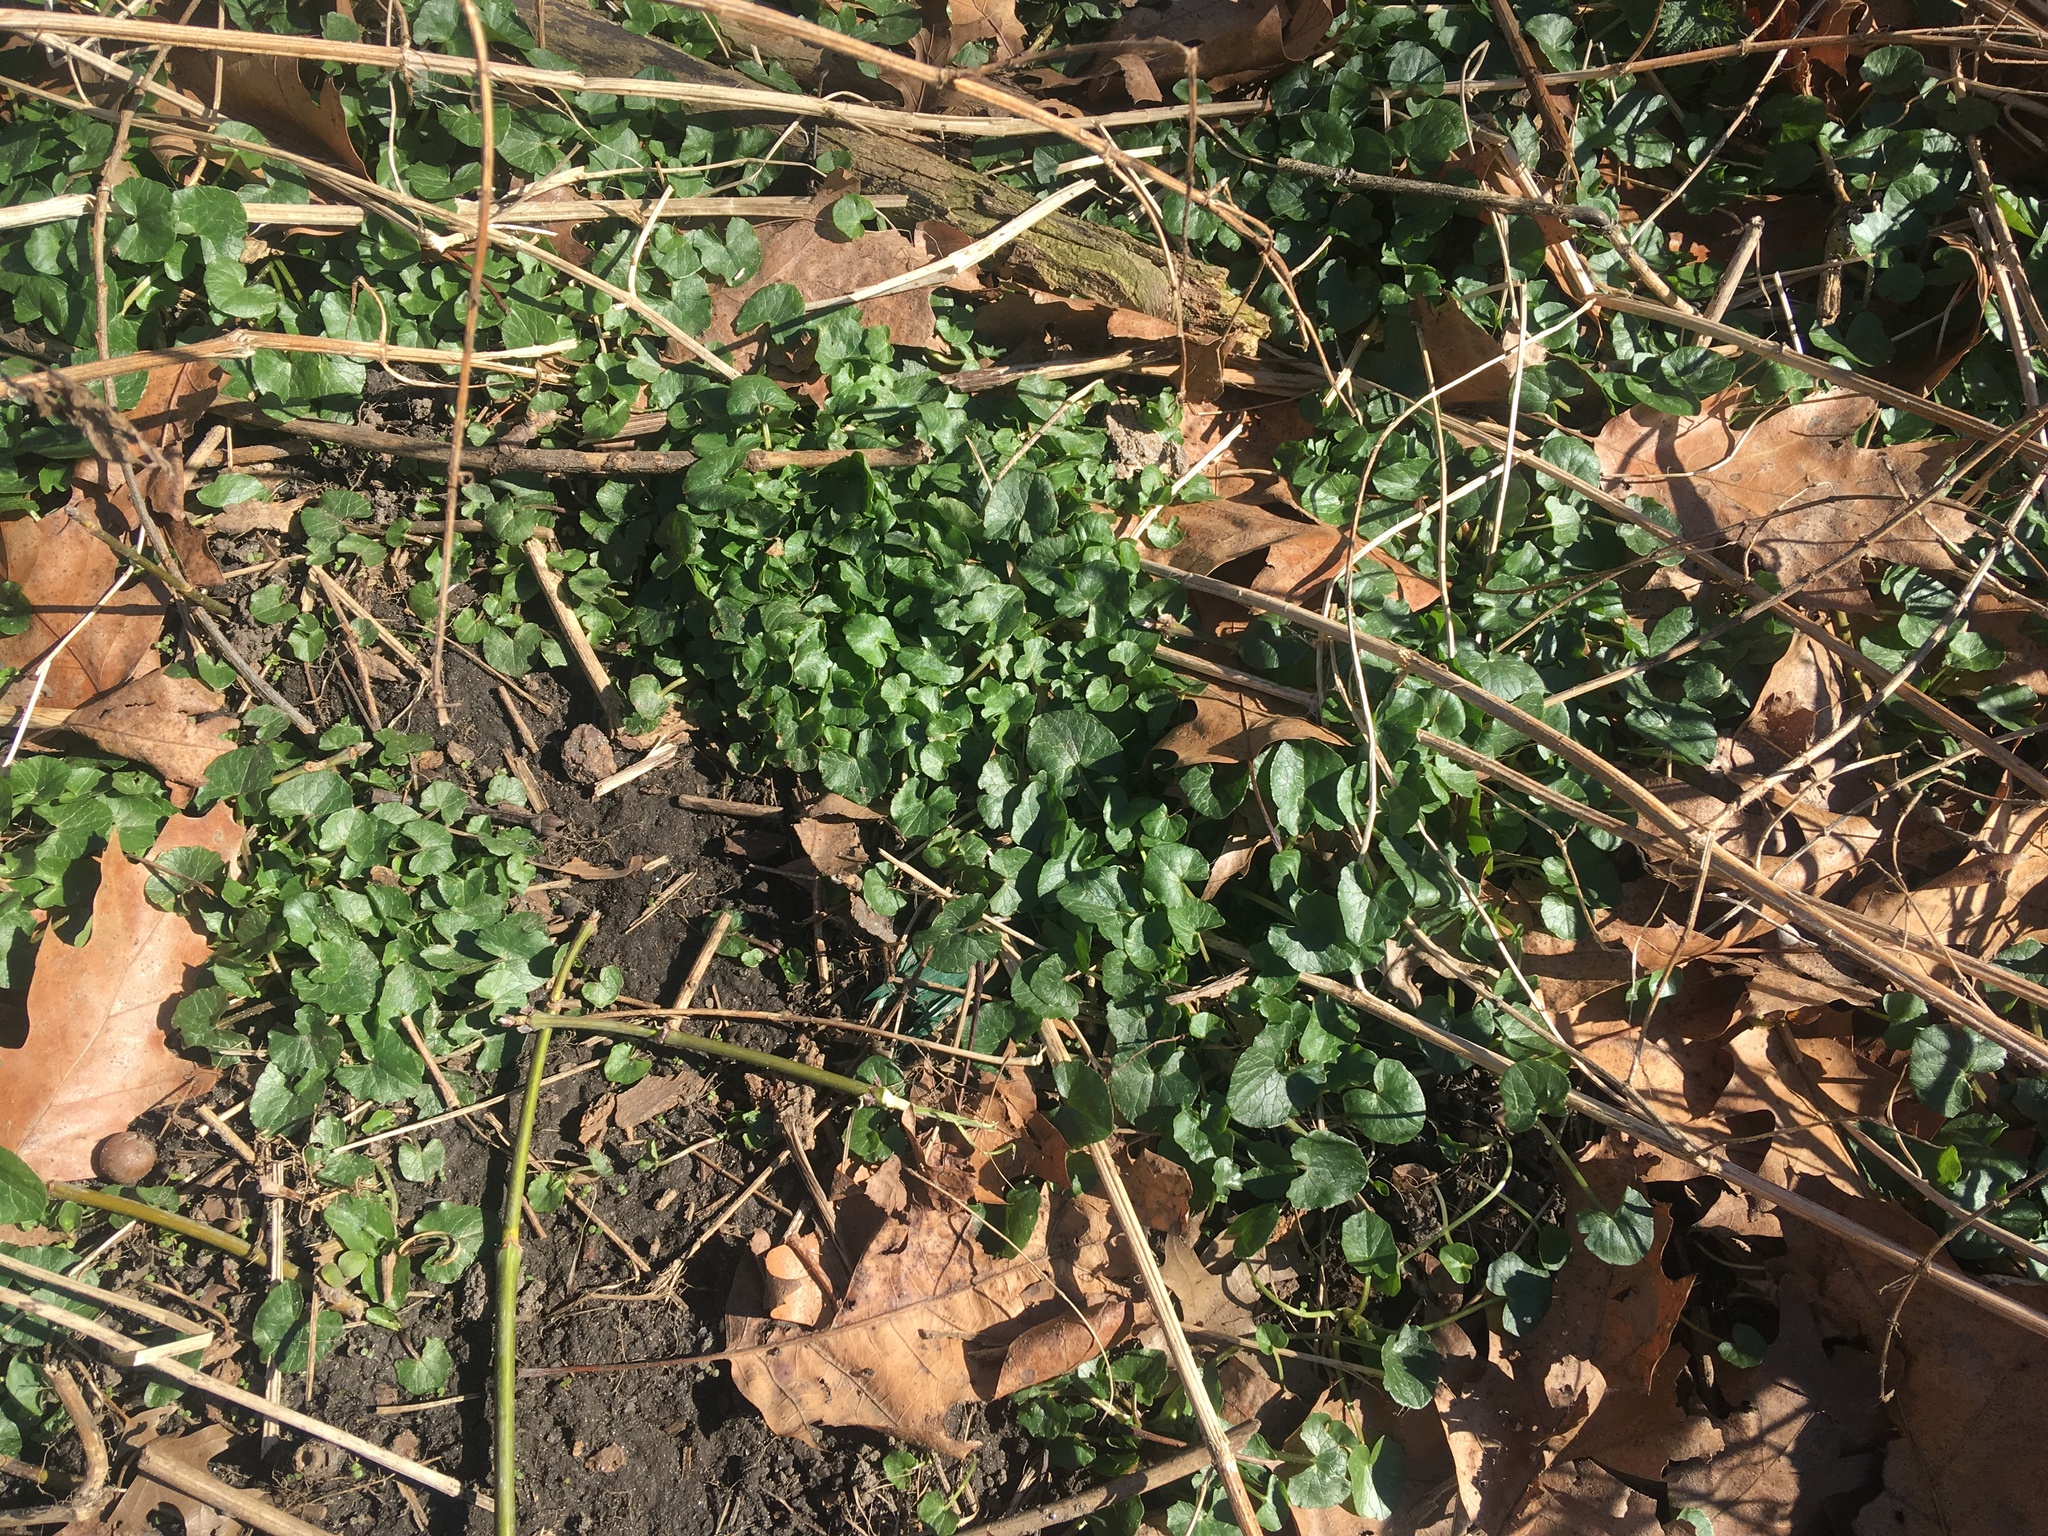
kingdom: Plantae
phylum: Tracheophyta
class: Magnoliopsida
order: Ranunculales
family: Ranunculaceae
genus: Ficaria
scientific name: Ficaria verna
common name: Lesser celandine
